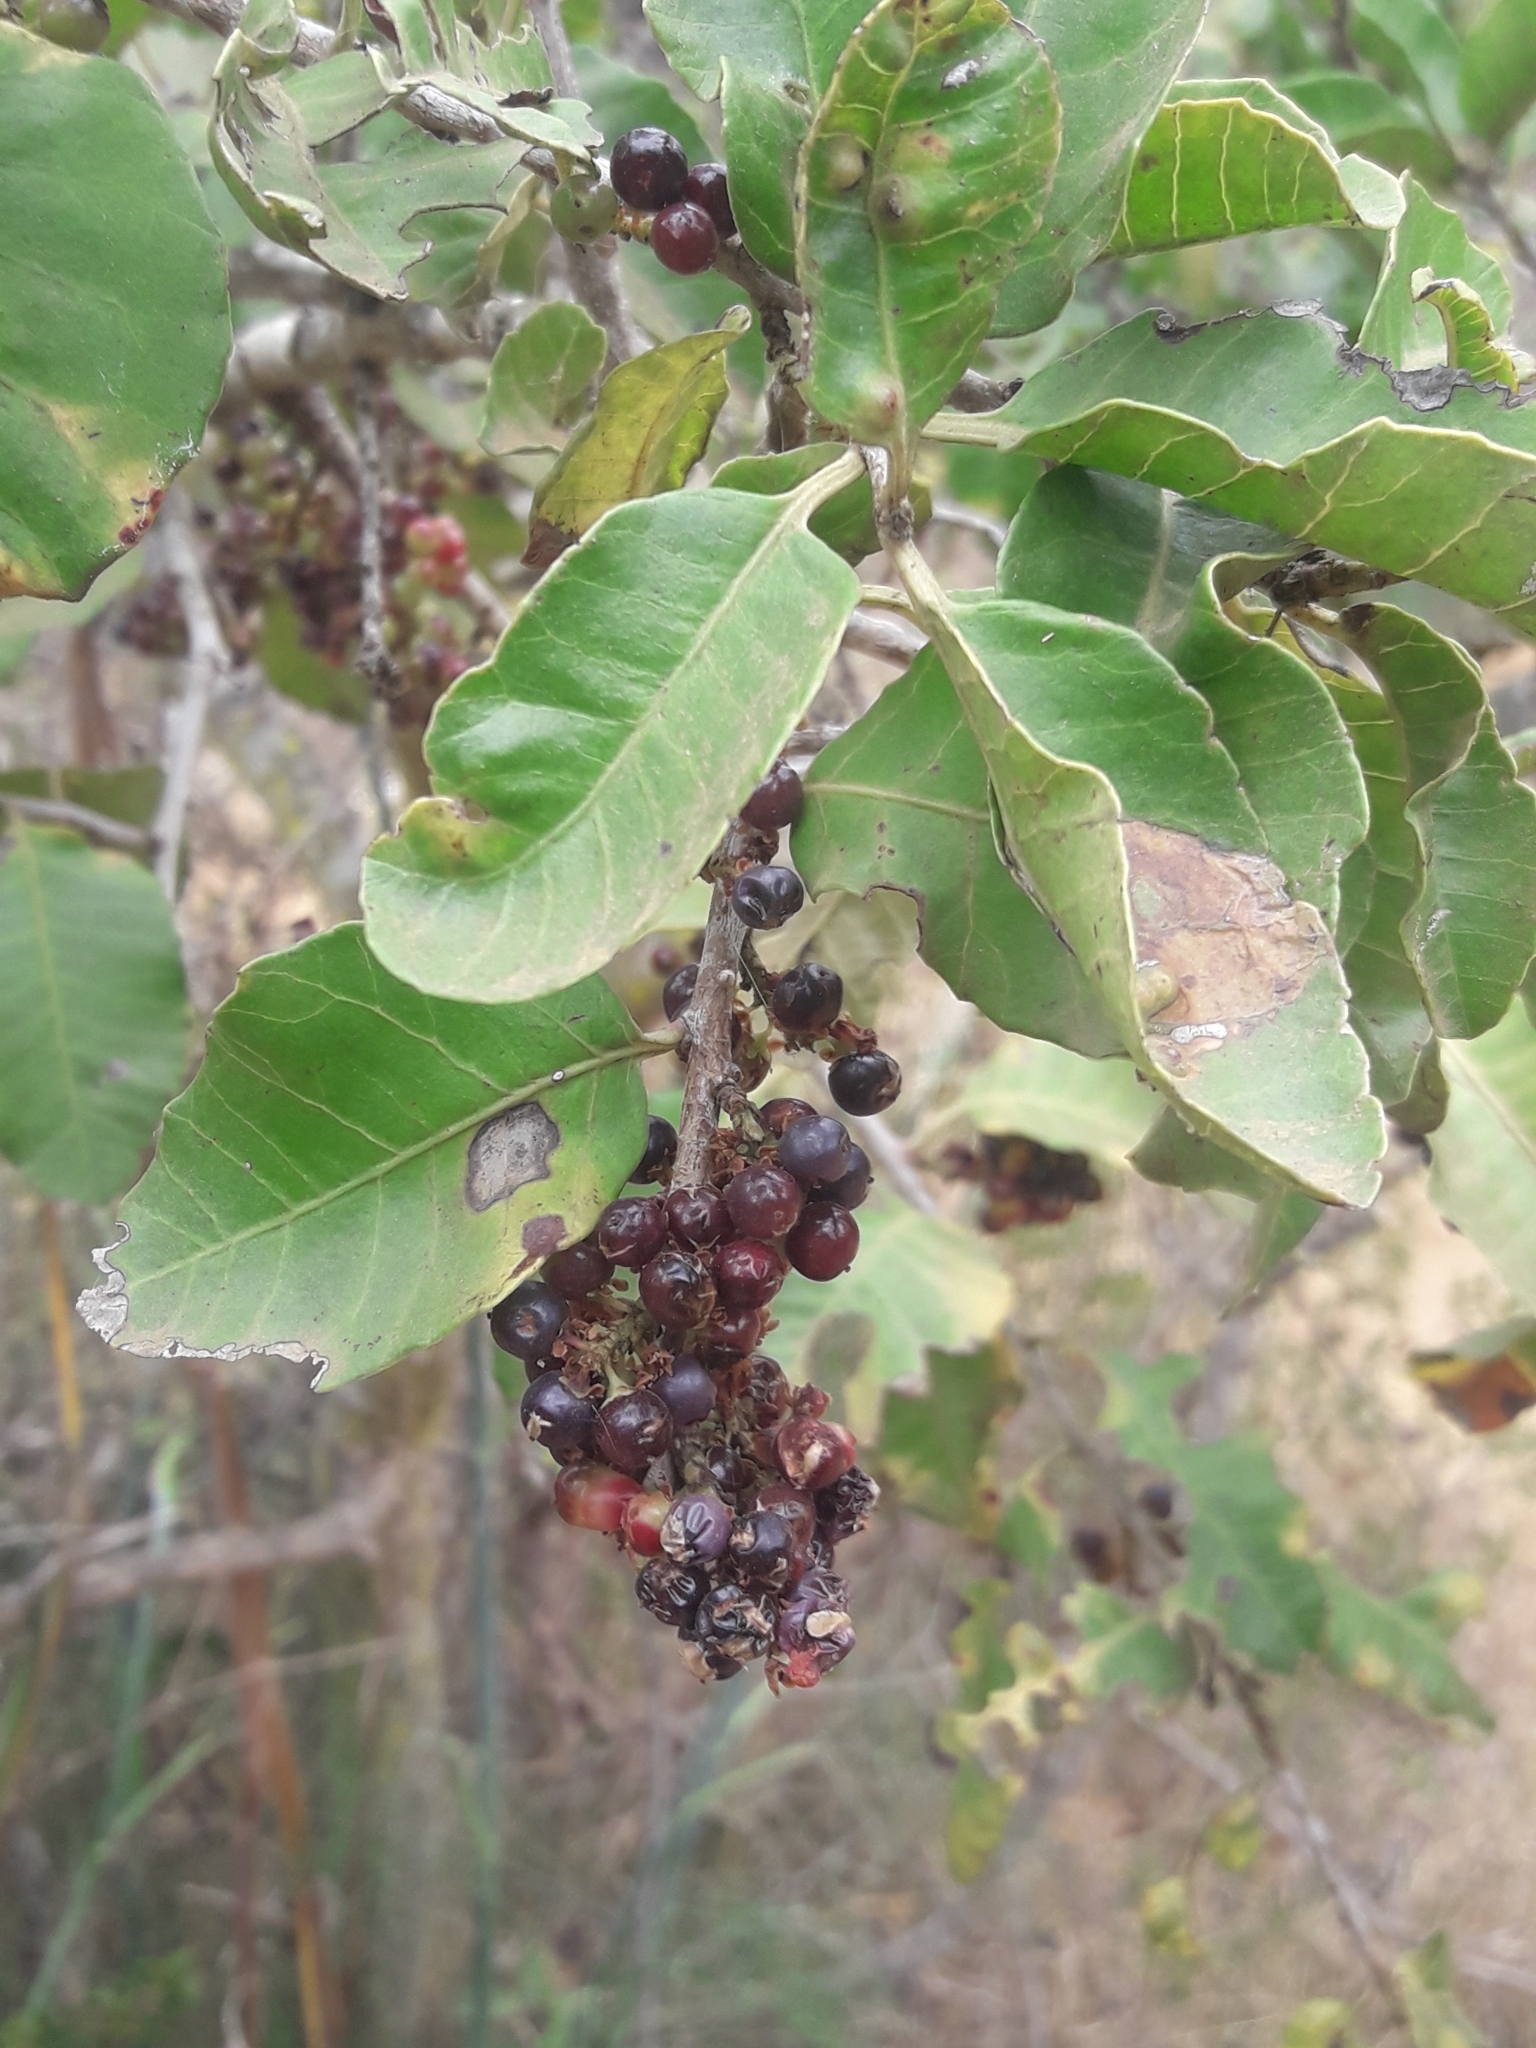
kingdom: Plantae
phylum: Tracheophyta
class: Magnoliopsida
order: Sapindales
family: Anacardiaceae
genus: Schinus
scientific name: Schinus latifolia
